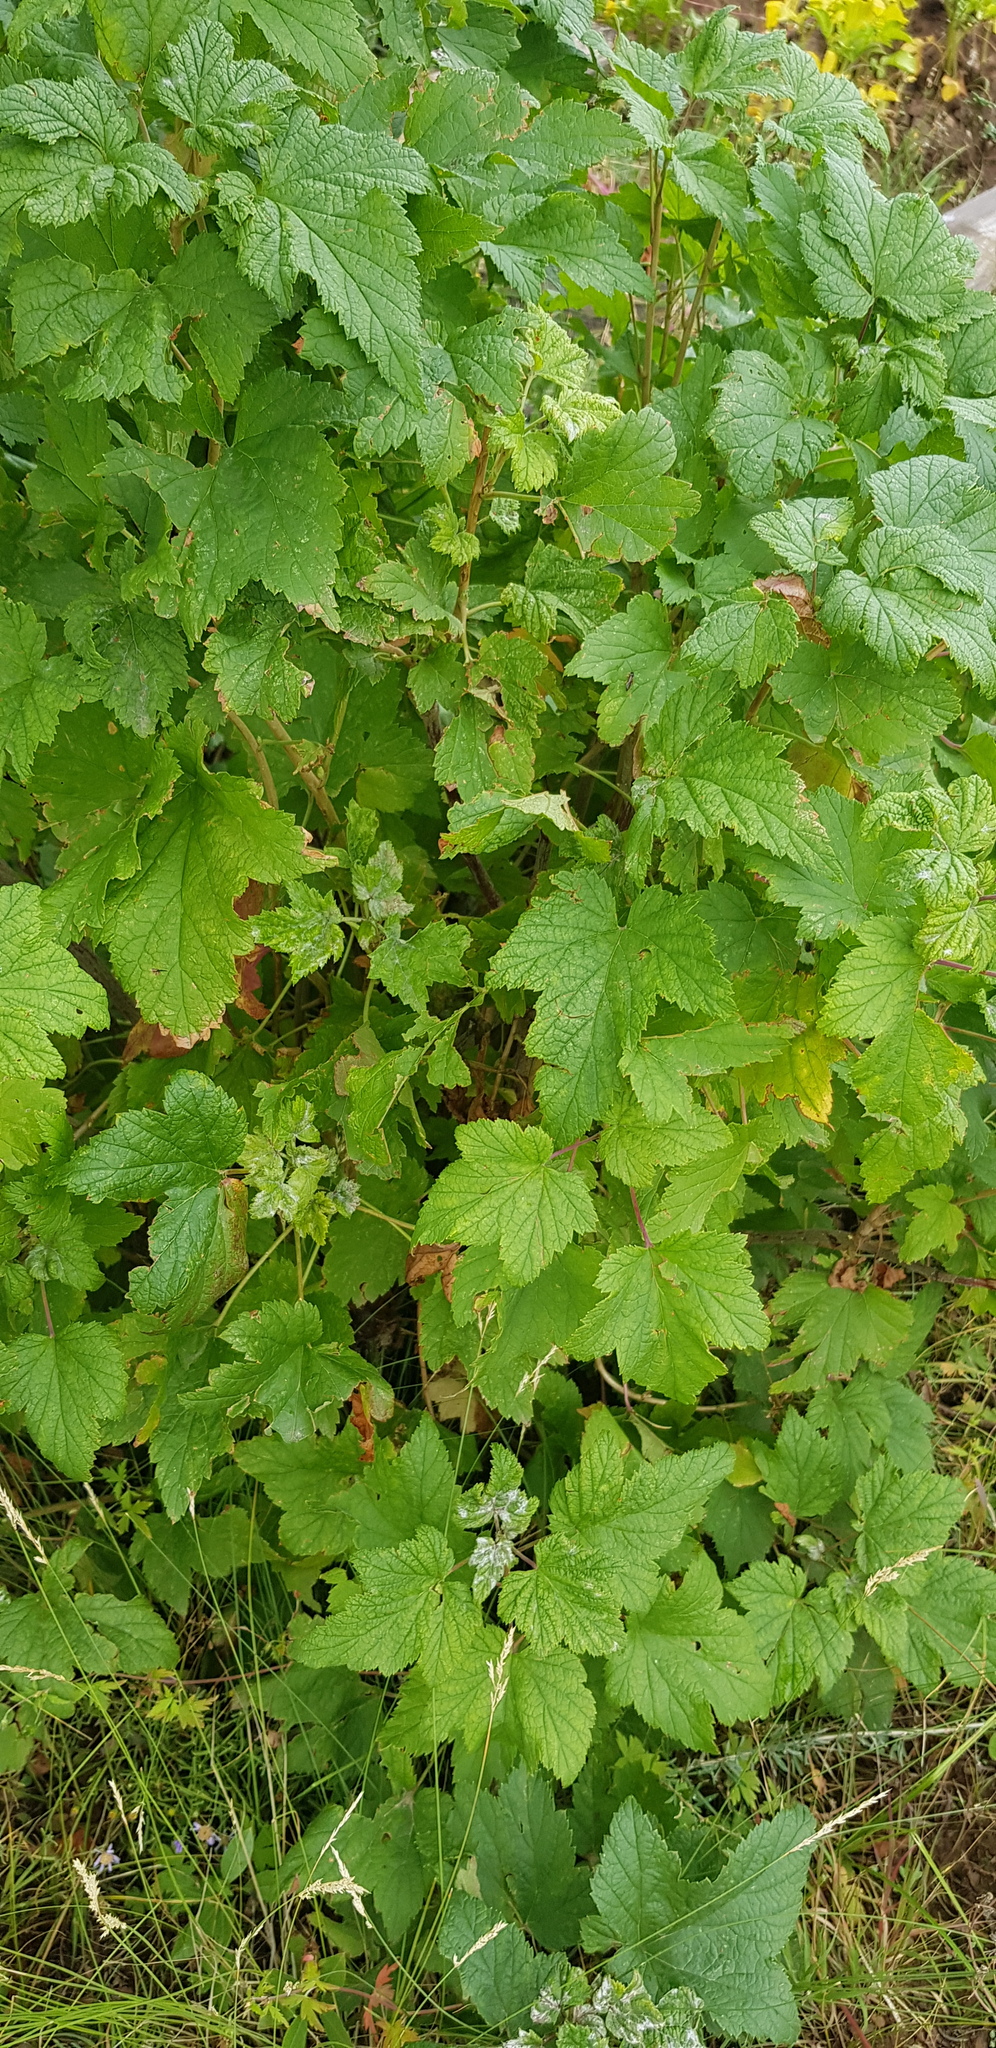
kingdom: Plantae
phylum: Tracheophyta
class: Magnoliopsida
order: Saxifragales
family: Grossulariaceae
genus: Ribes
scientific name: Ribes nigrum
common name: Black currant
